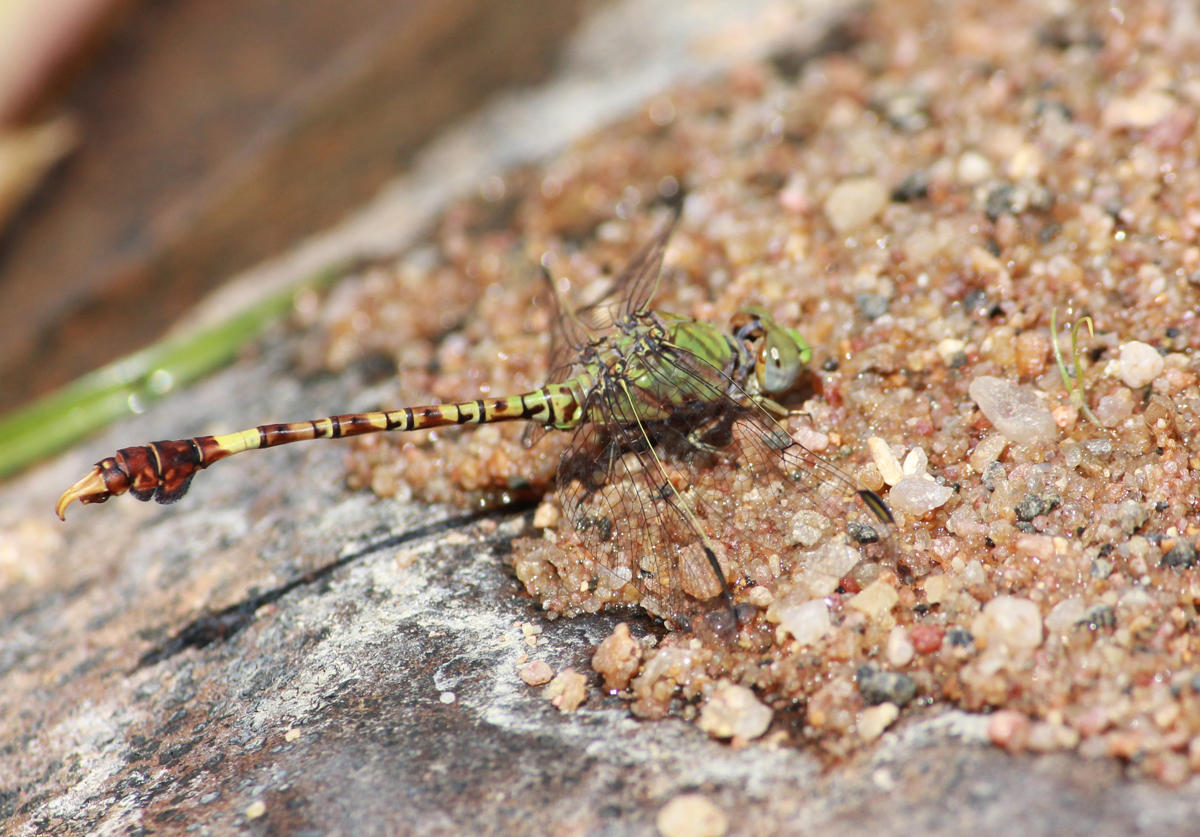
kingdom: Animalia
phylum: Arthropoda
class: Insecta
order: Odonata
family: Gomphidae
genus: Paragomphus
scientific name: Paragomphus genei
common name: Common hooktail
